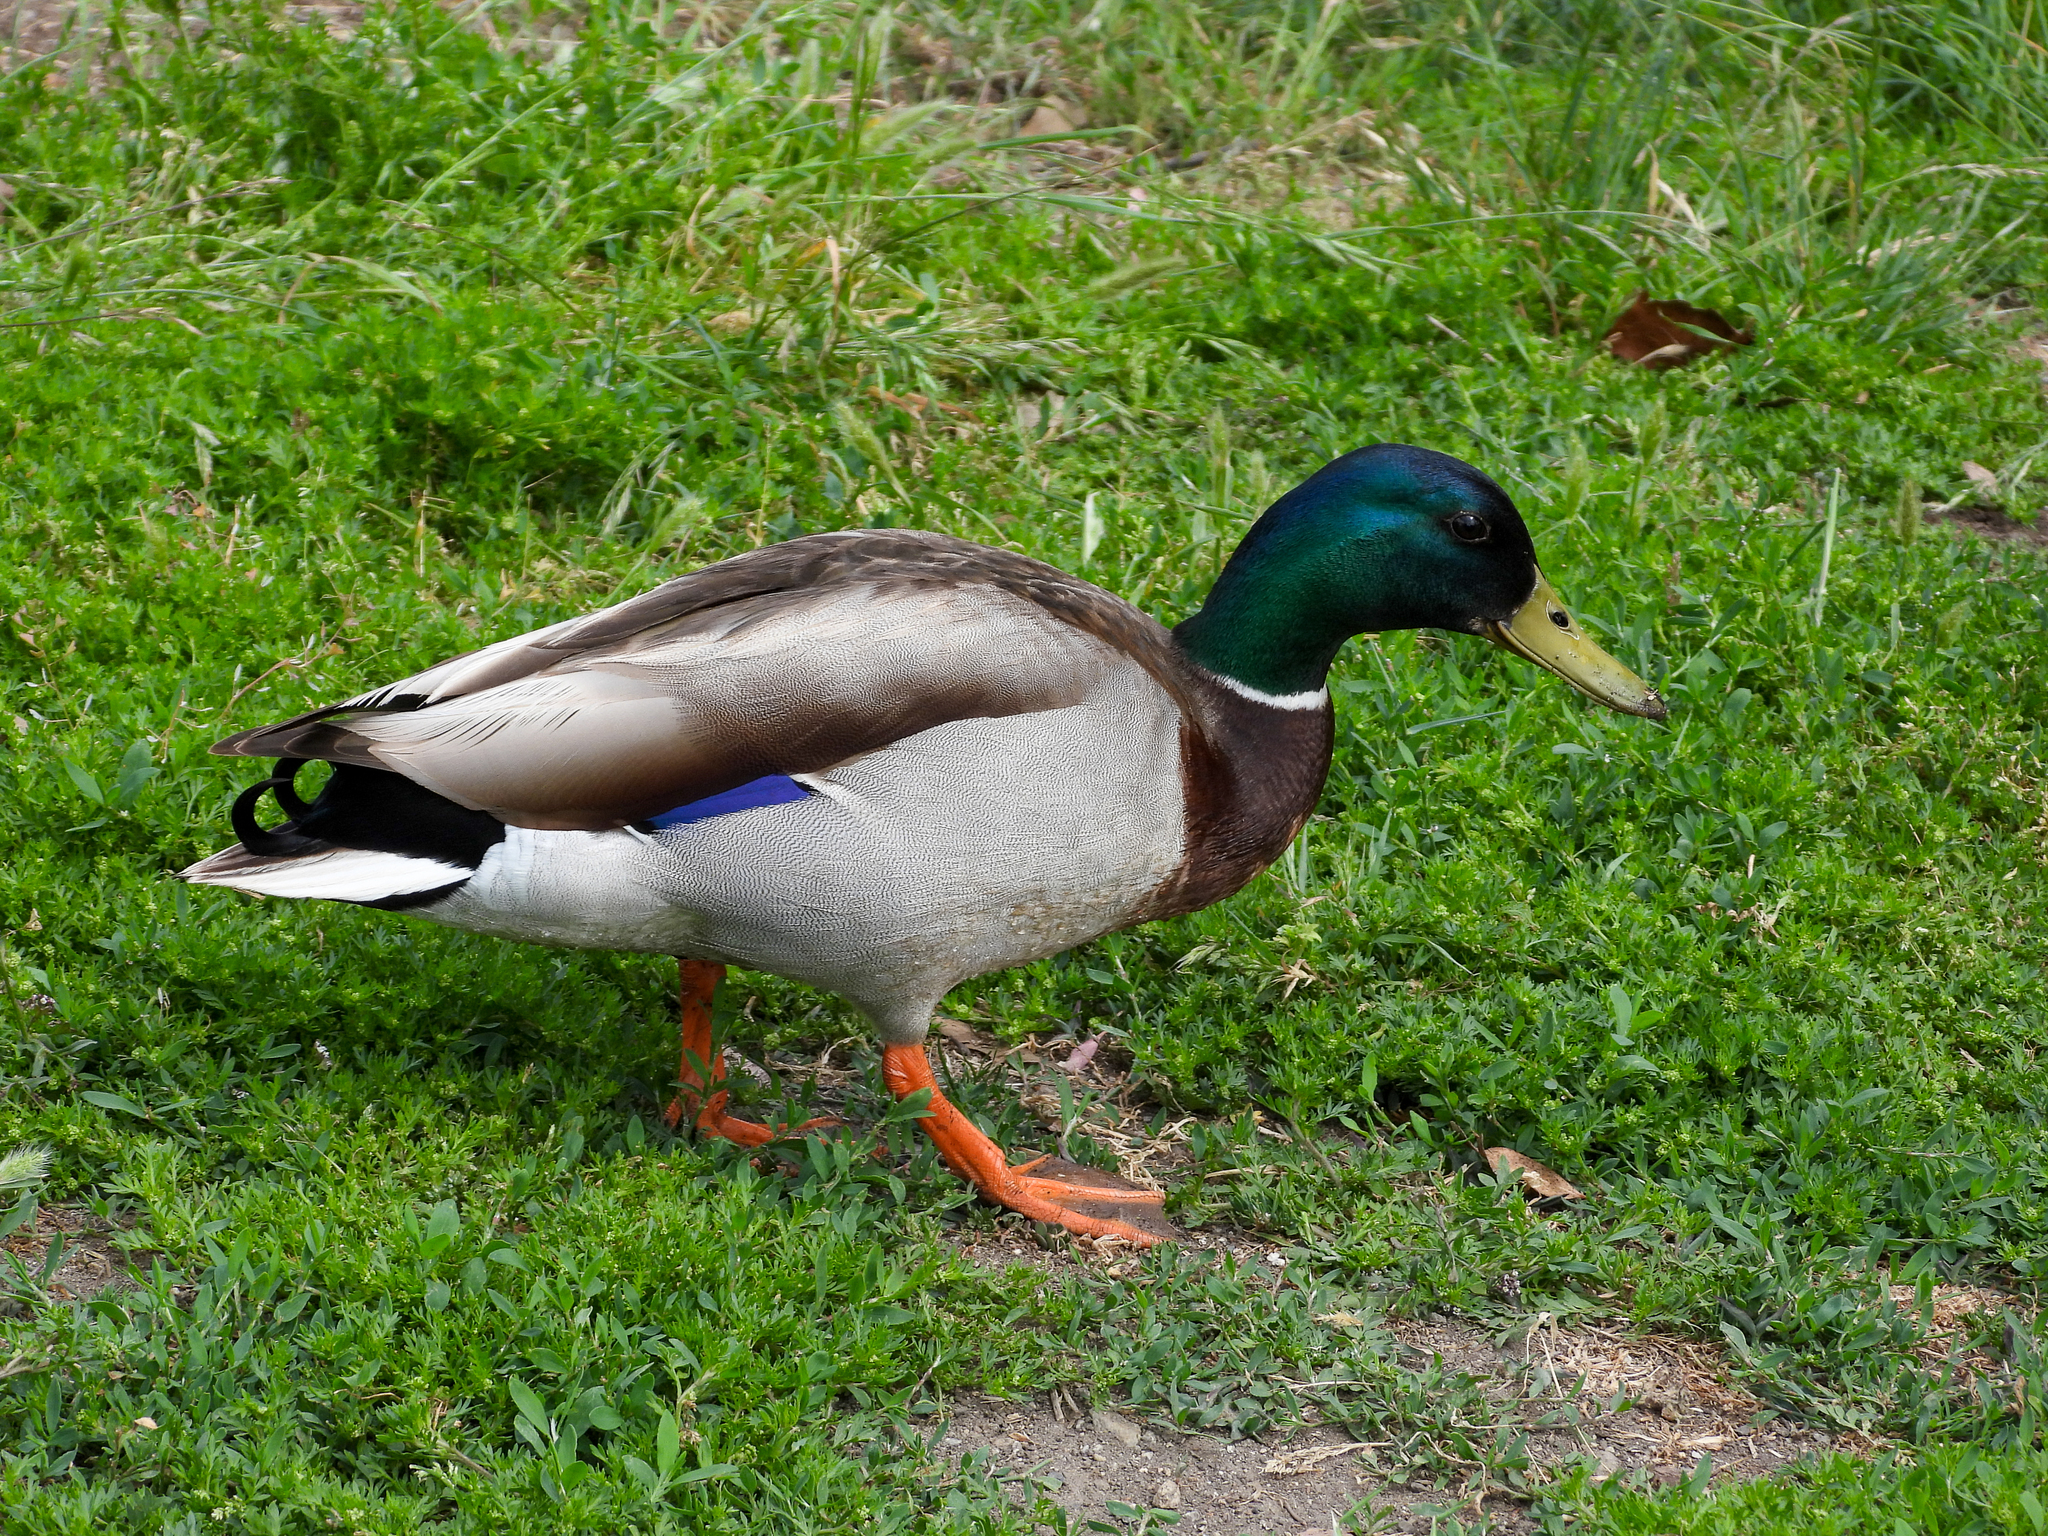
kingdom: Animalia
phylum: Chordata
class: Aves
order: Anseriformes
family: Anatidae
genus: Anas
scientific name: Anas platyrhynchos
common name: Mallard
